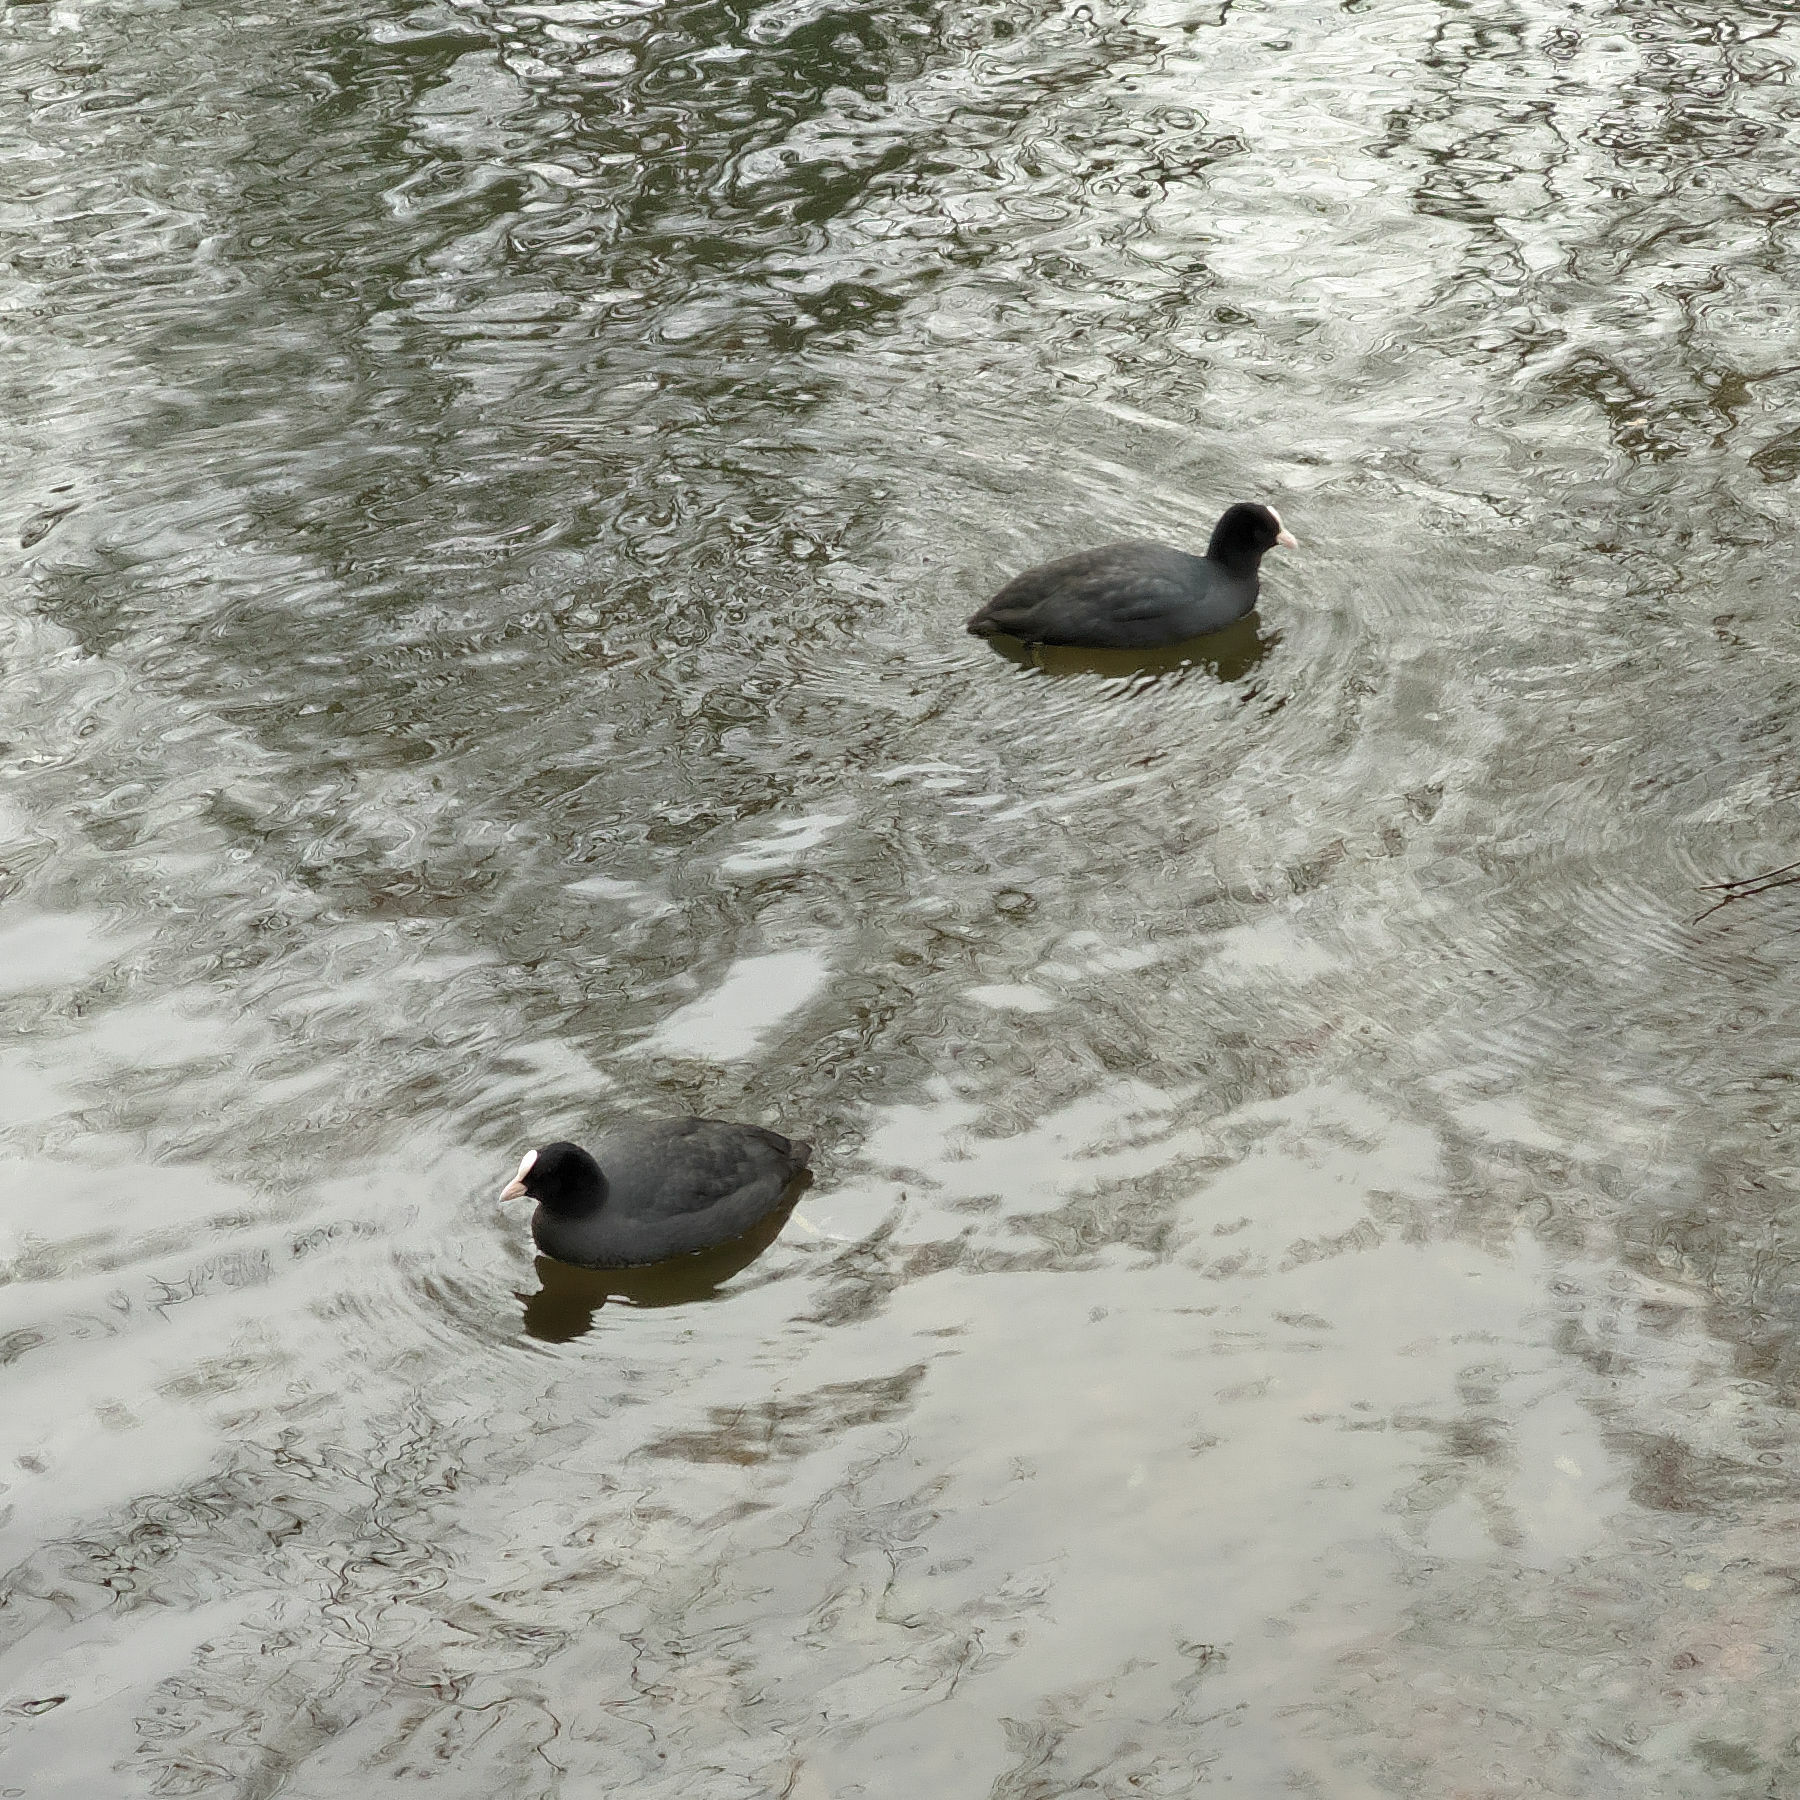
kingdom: Animalia
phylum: Chordata
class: Aves
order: Gruiformes
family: Rallidae
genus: Fulica
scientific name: Fulica atra
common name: Eurasian coot
